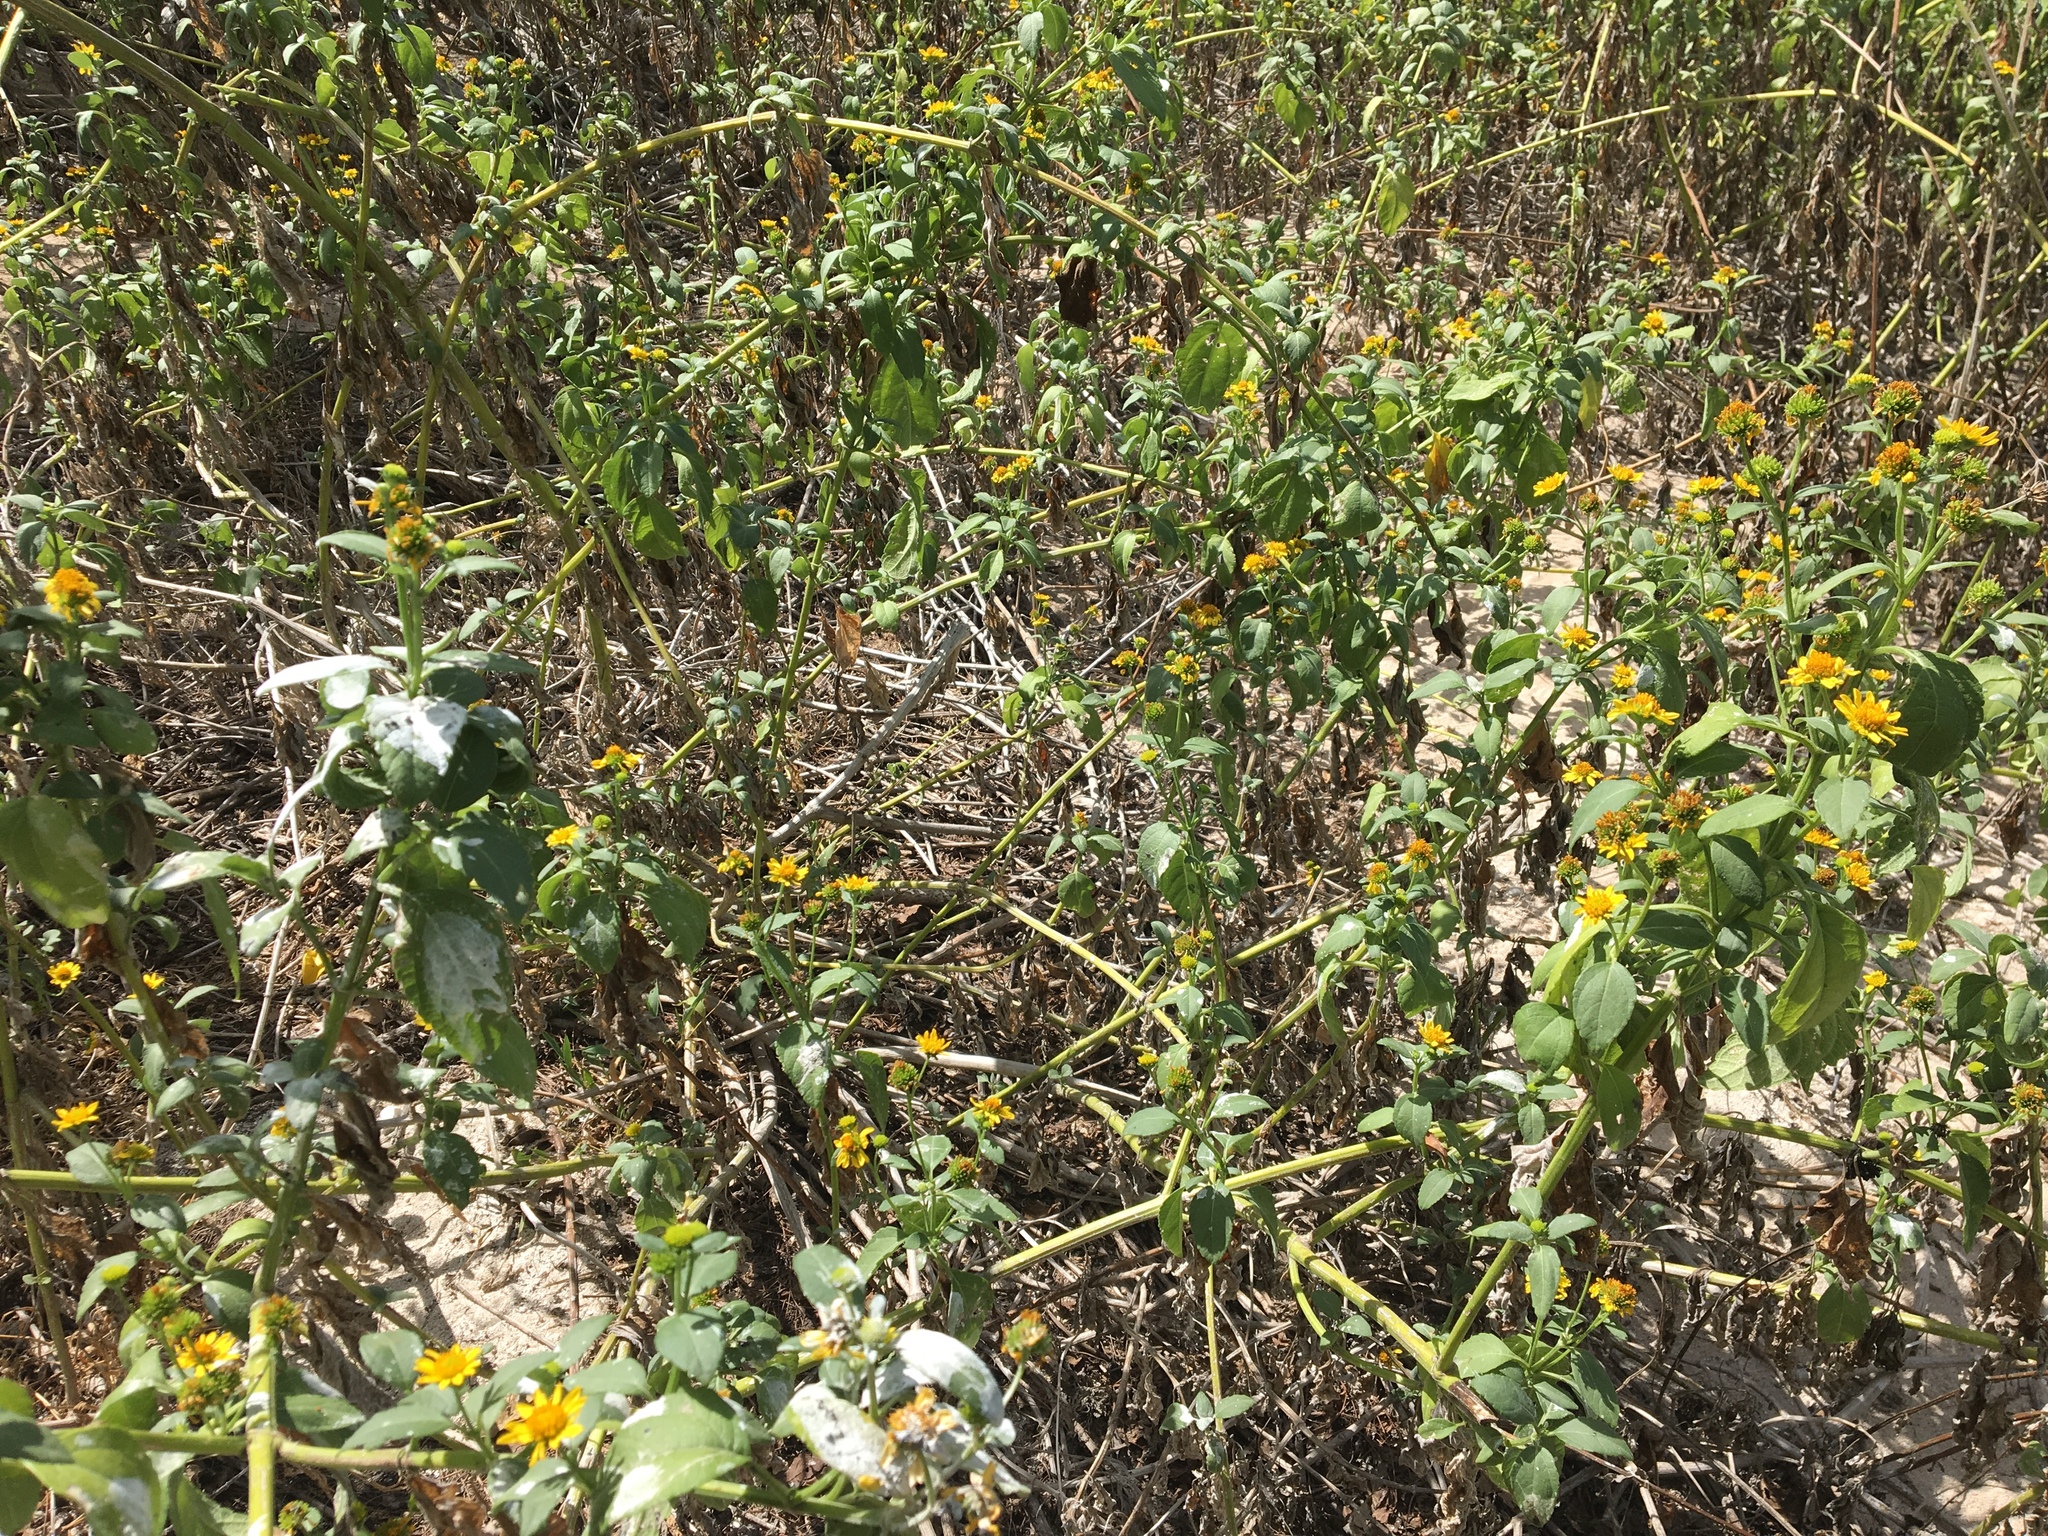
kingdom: Plantae
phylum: Tracheophyta
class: Magnoliopsida
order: Asterales
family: Asteraceae
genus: Wollastonia
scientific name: Wollastonia uniflora
